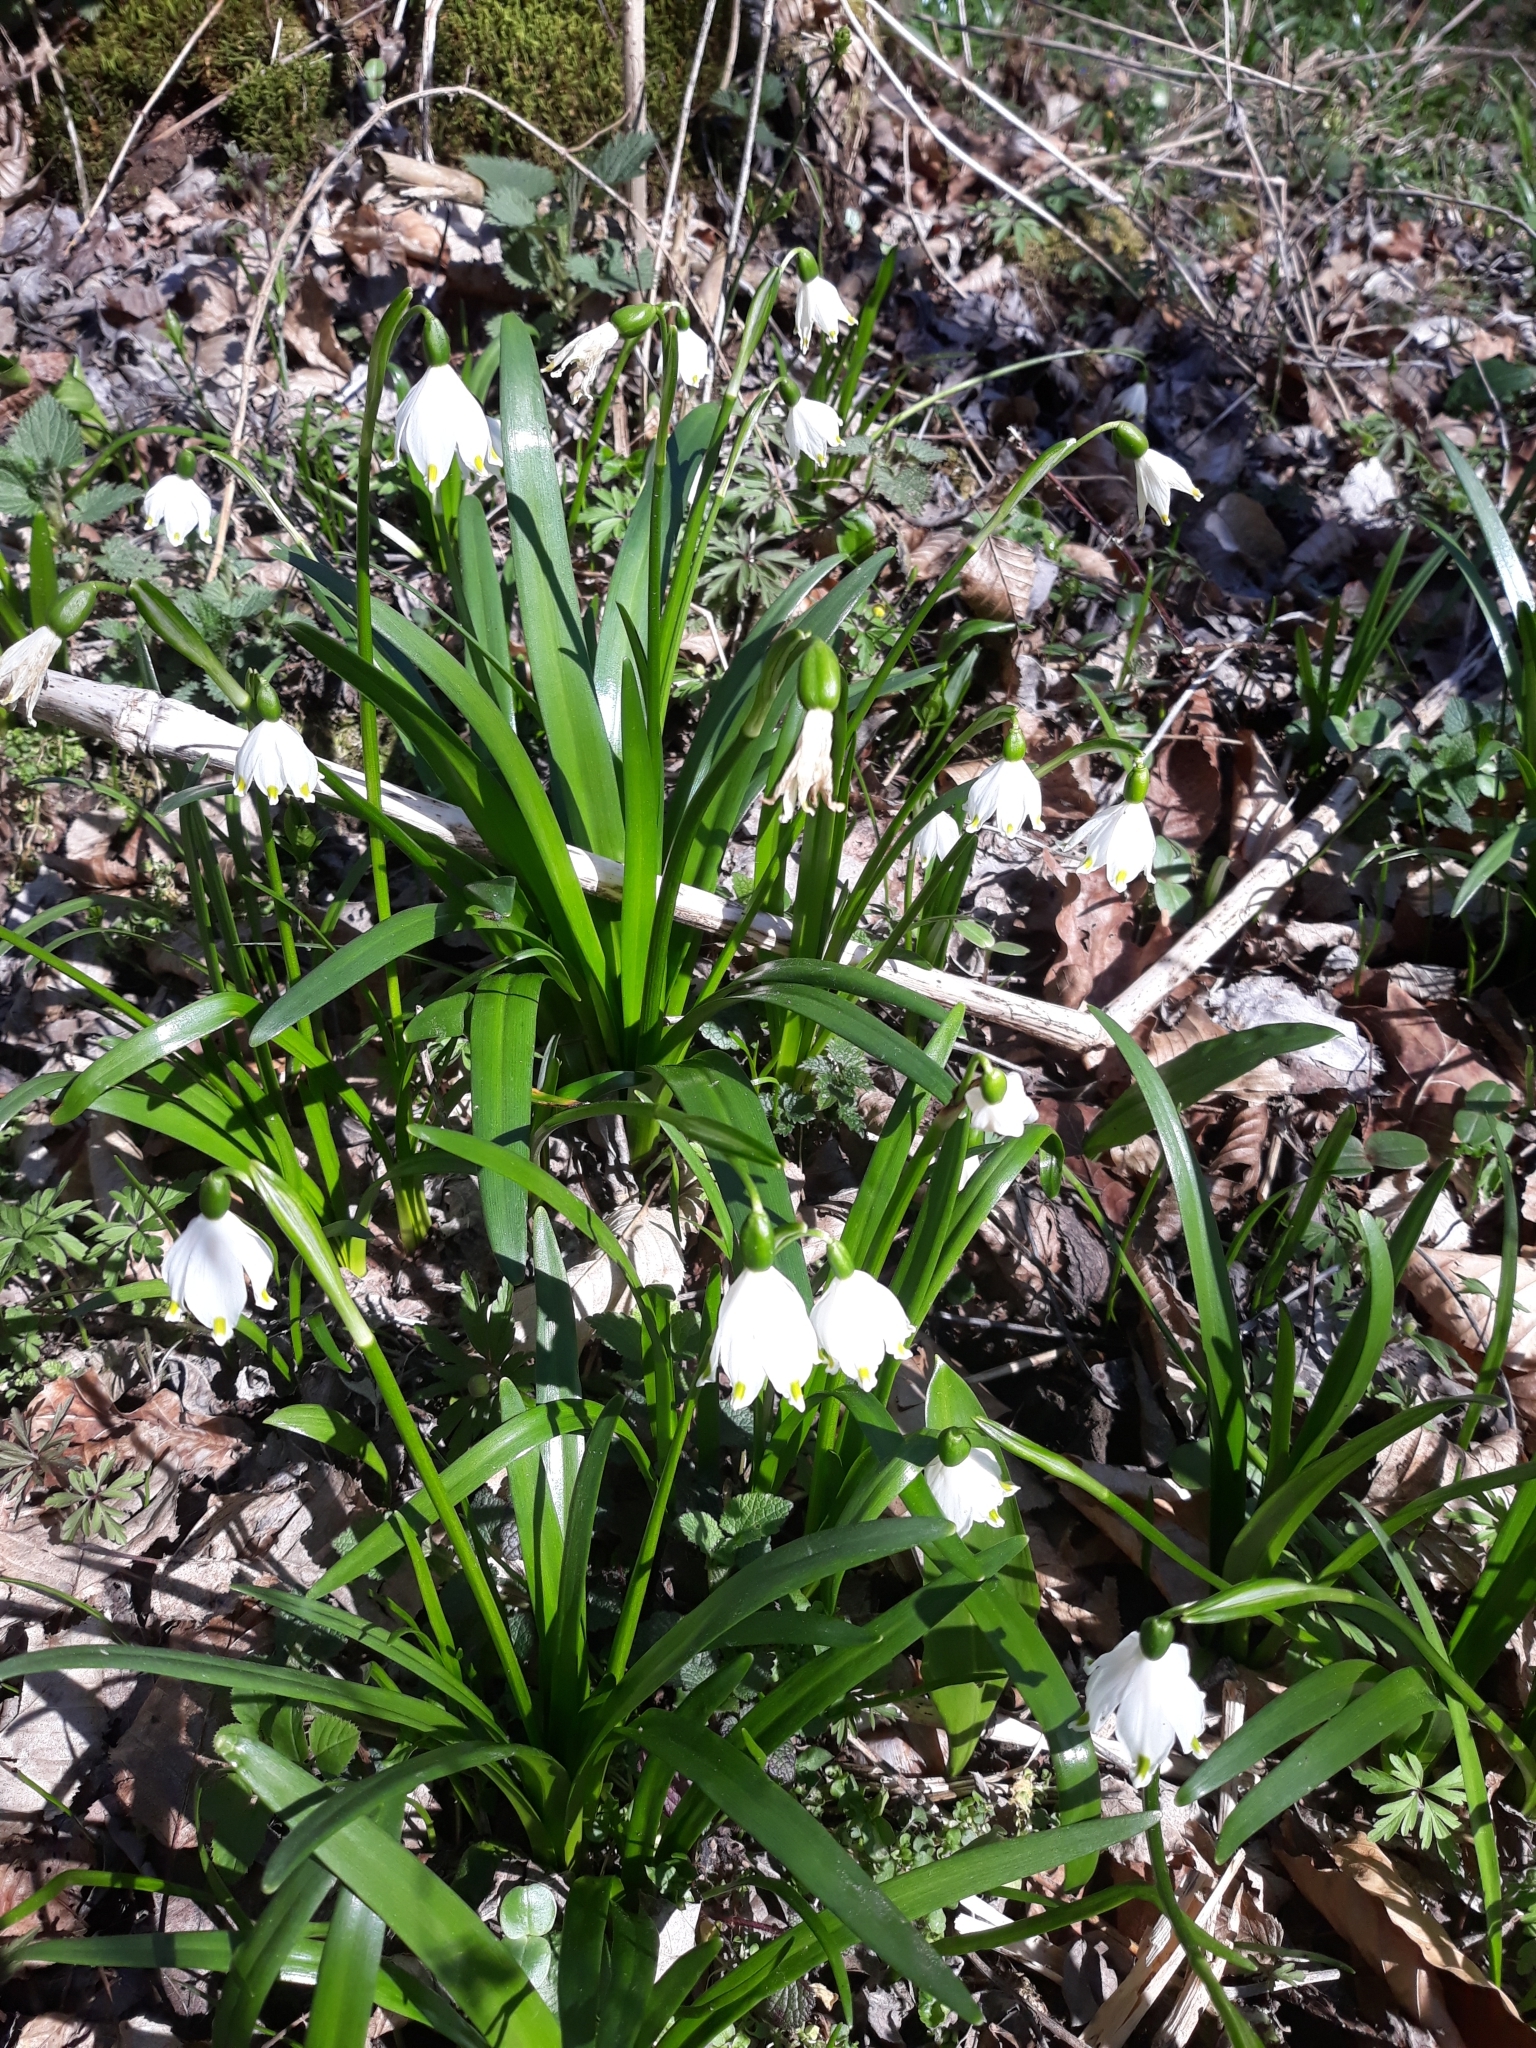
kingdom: Plantae
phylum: Tracheophyta
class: Liliopsida
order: Asparagales
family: Amaryllidaceae
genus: Leucojum
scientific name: Leucojum vernum
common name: Spring snowflake
